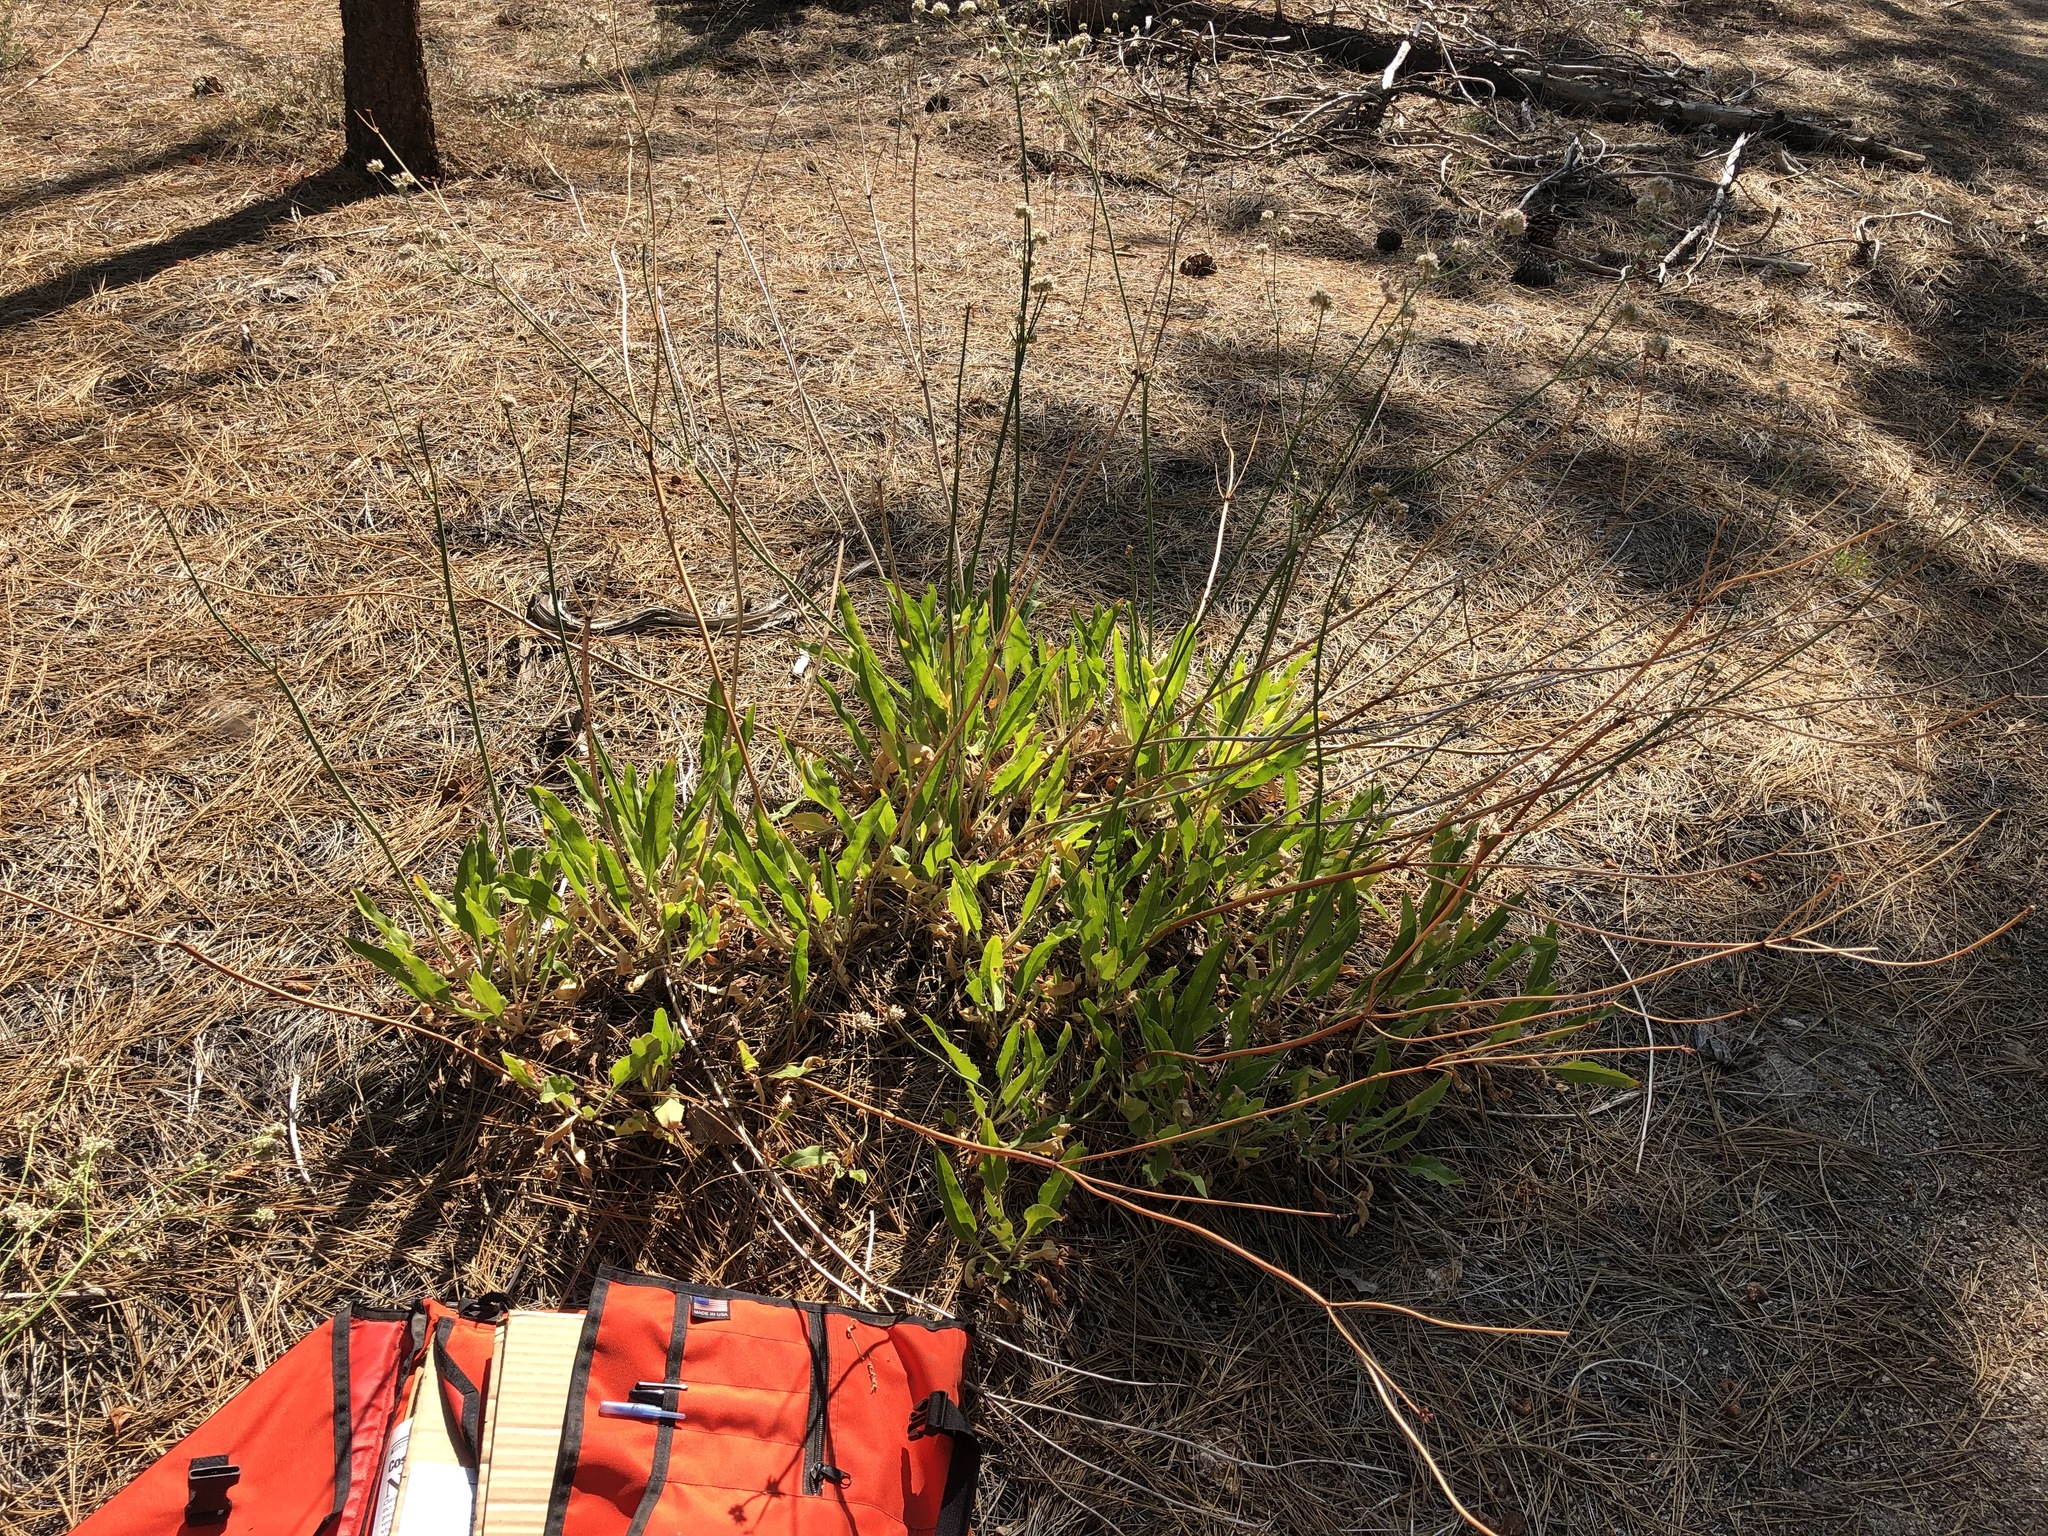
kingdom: Plantae
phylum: Tracheophyta
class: Magnoliopsida
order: Caryophyllales
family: Polygonaceae
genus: Eriogonum
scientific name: Eriogonum elatum
